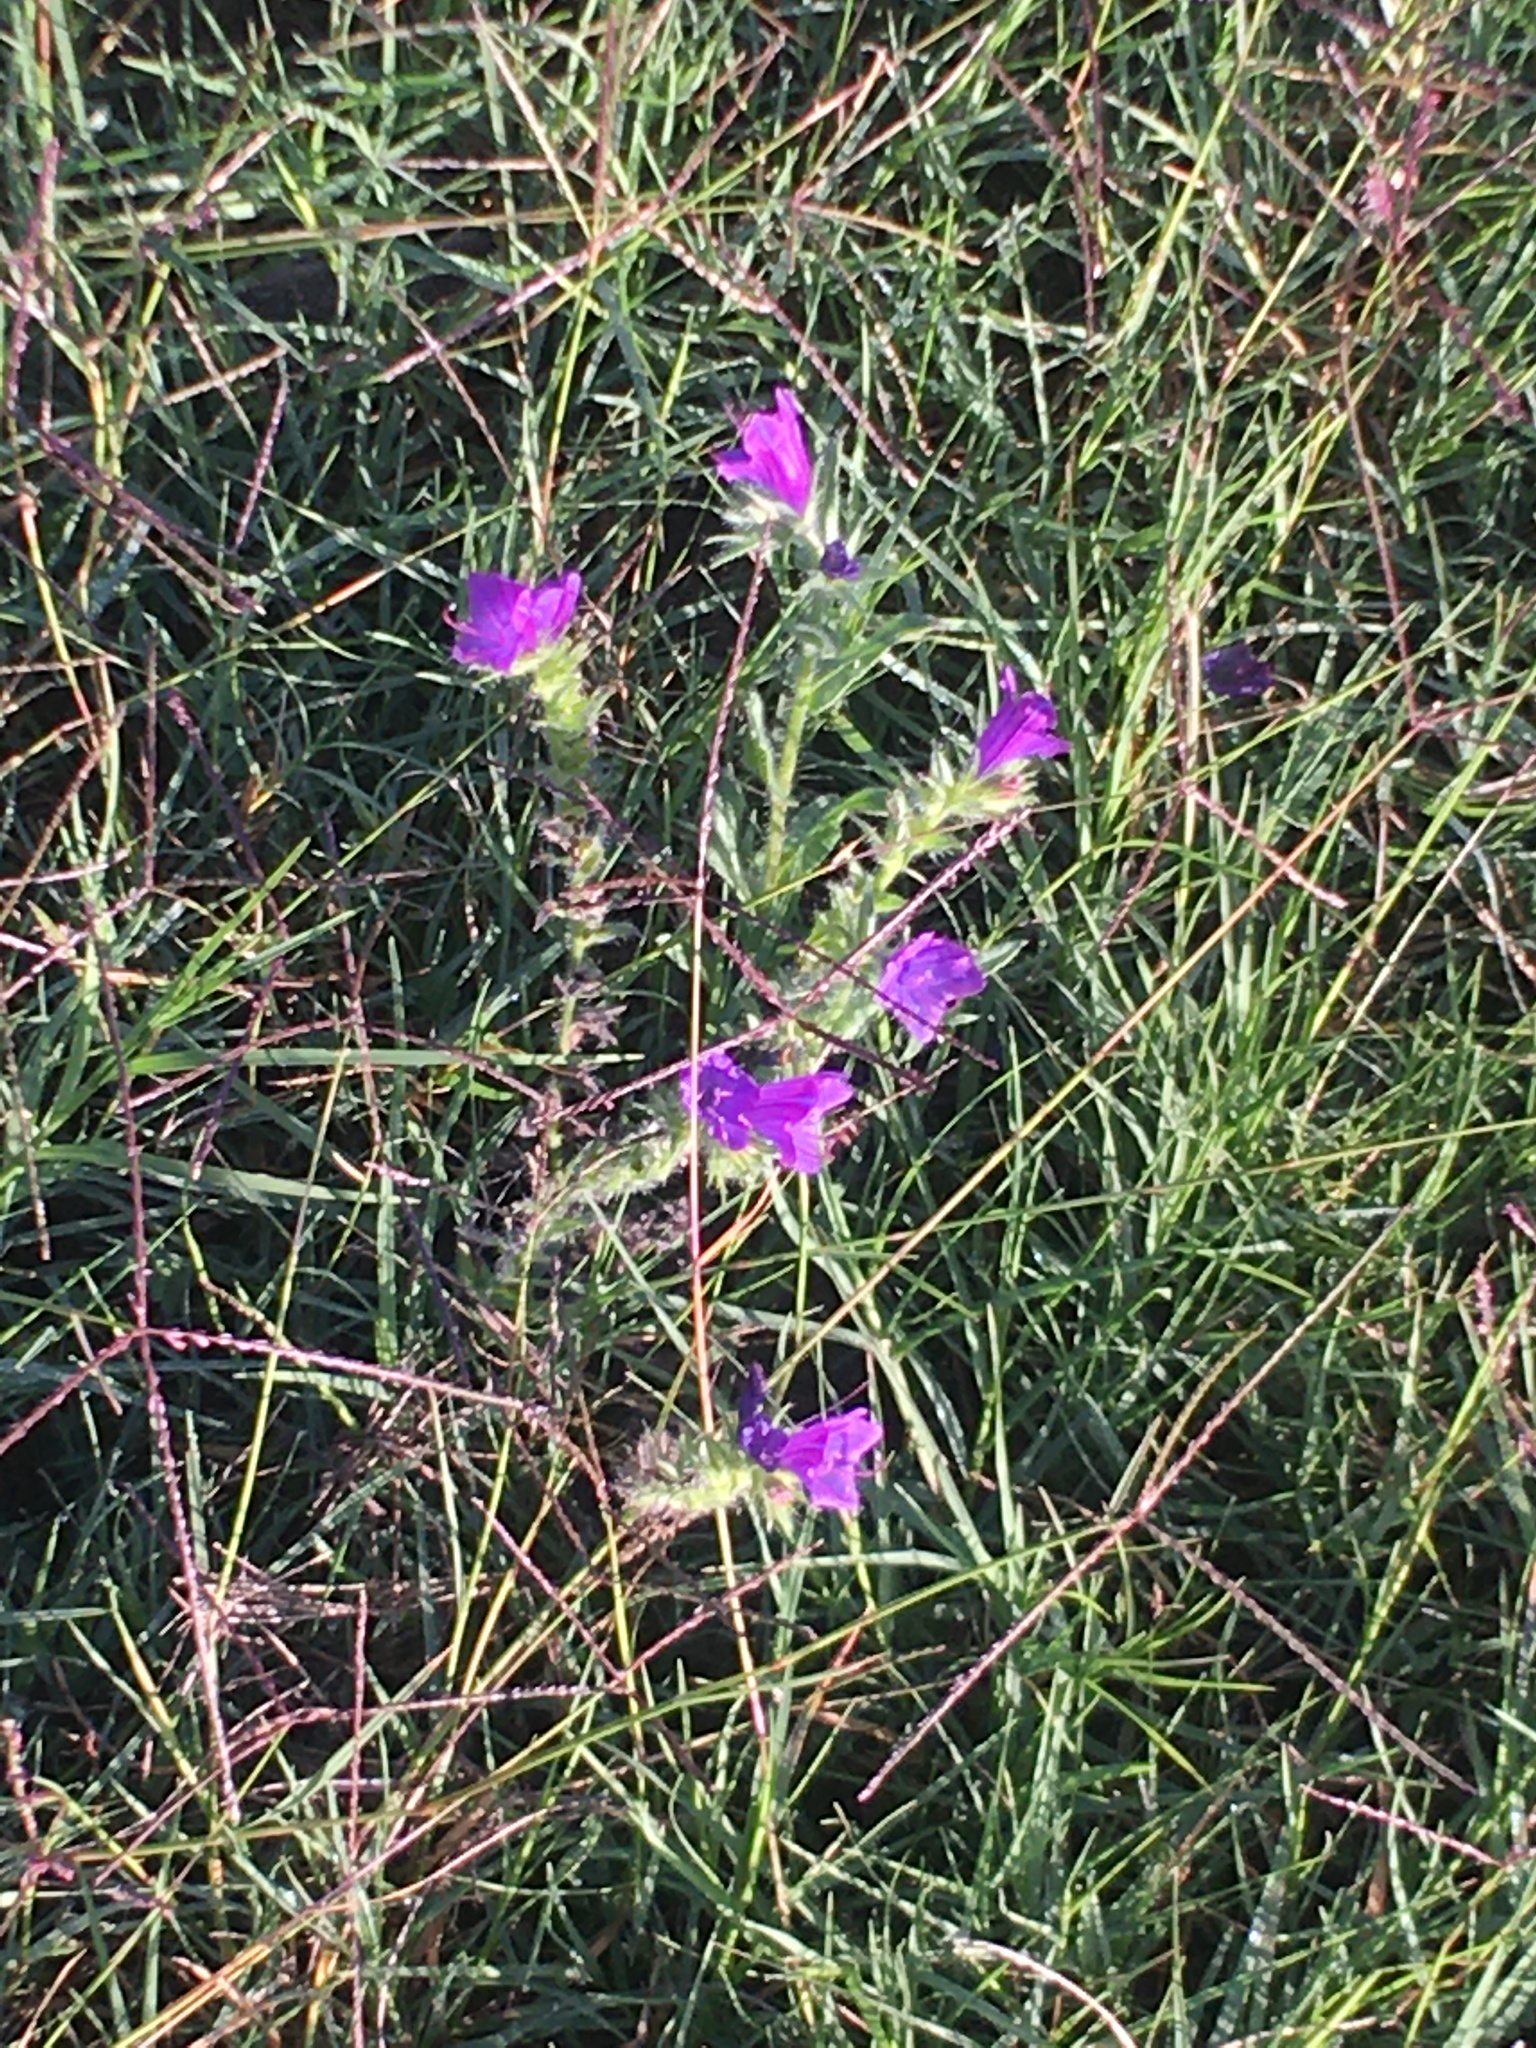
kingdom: Plantae
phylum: Tracheophyta
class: Magnoliopsida
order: Boraginales
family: Boraginaceae
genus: Echium
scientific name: Echium plantagineum
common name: Purple viper's-bugloss
